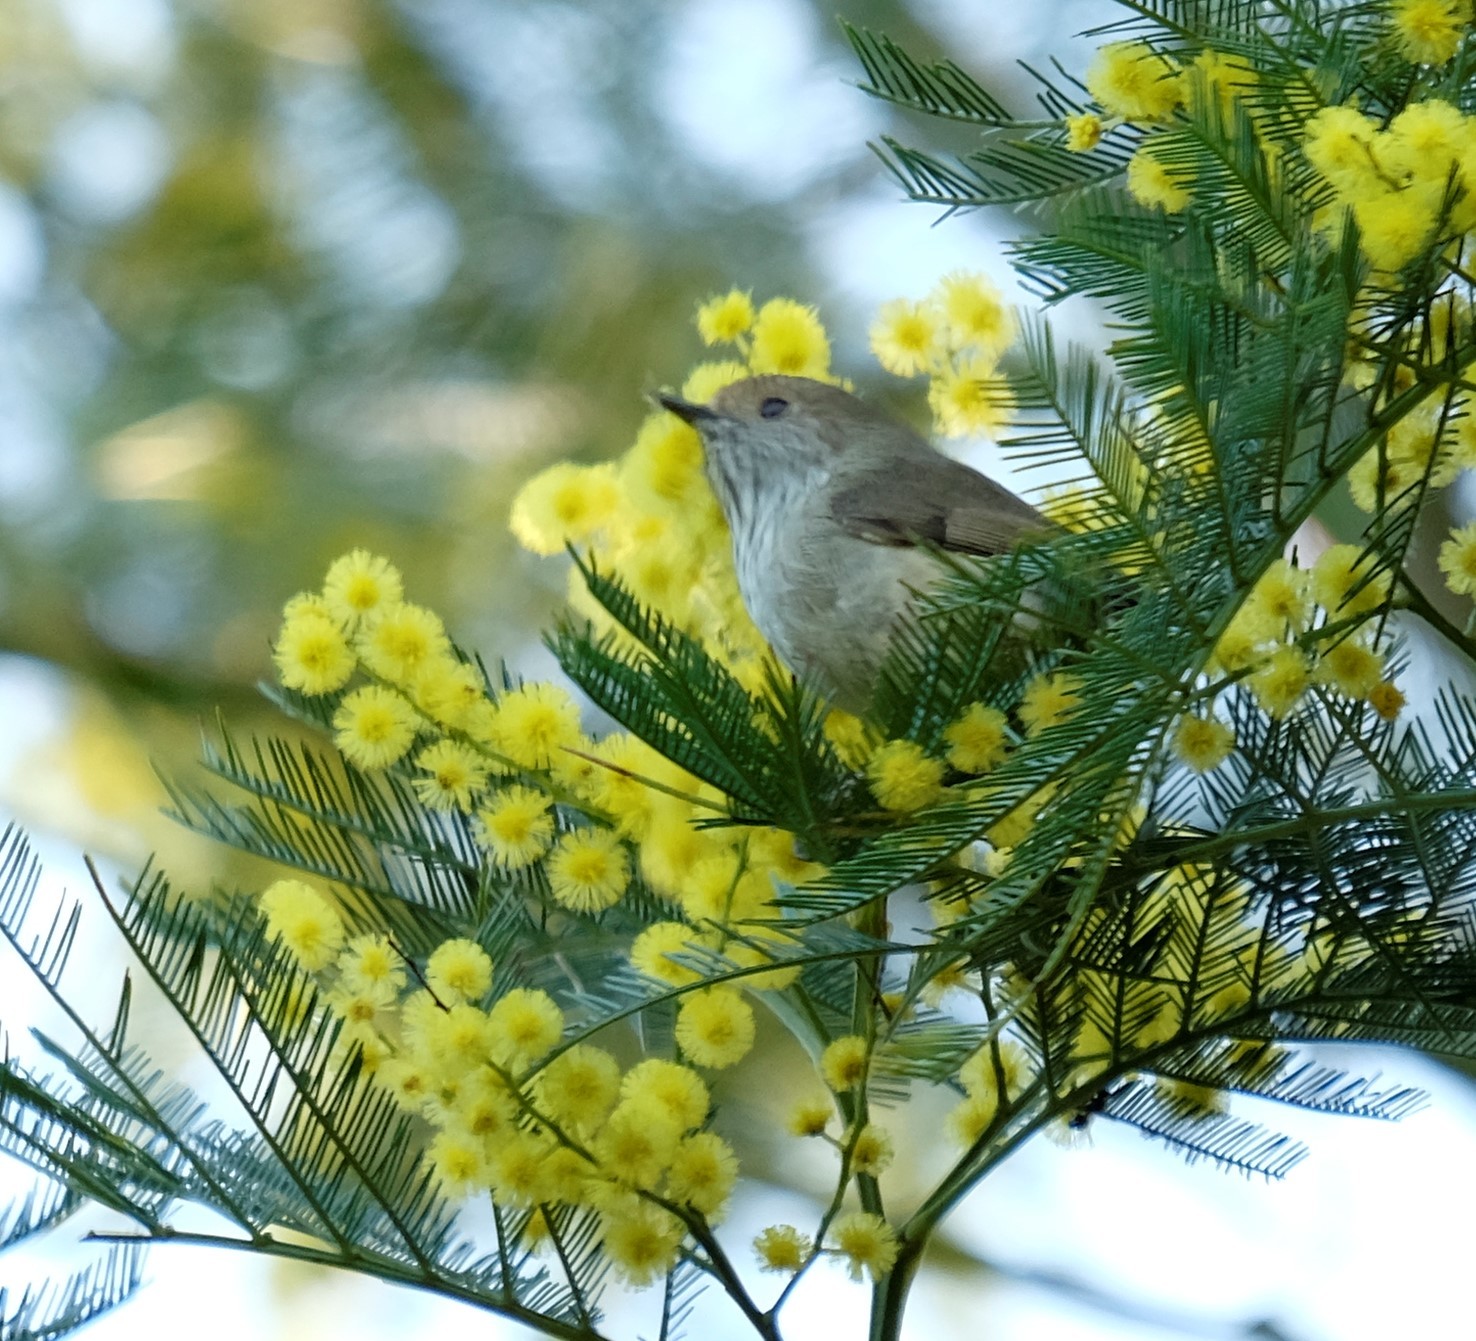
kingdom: Animalia
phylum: Chordata
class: Aves
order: Passeriformes
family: Acanthizidae
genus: Acanthiza
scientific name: Acanthiza pusilla
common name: Brown thornbill
